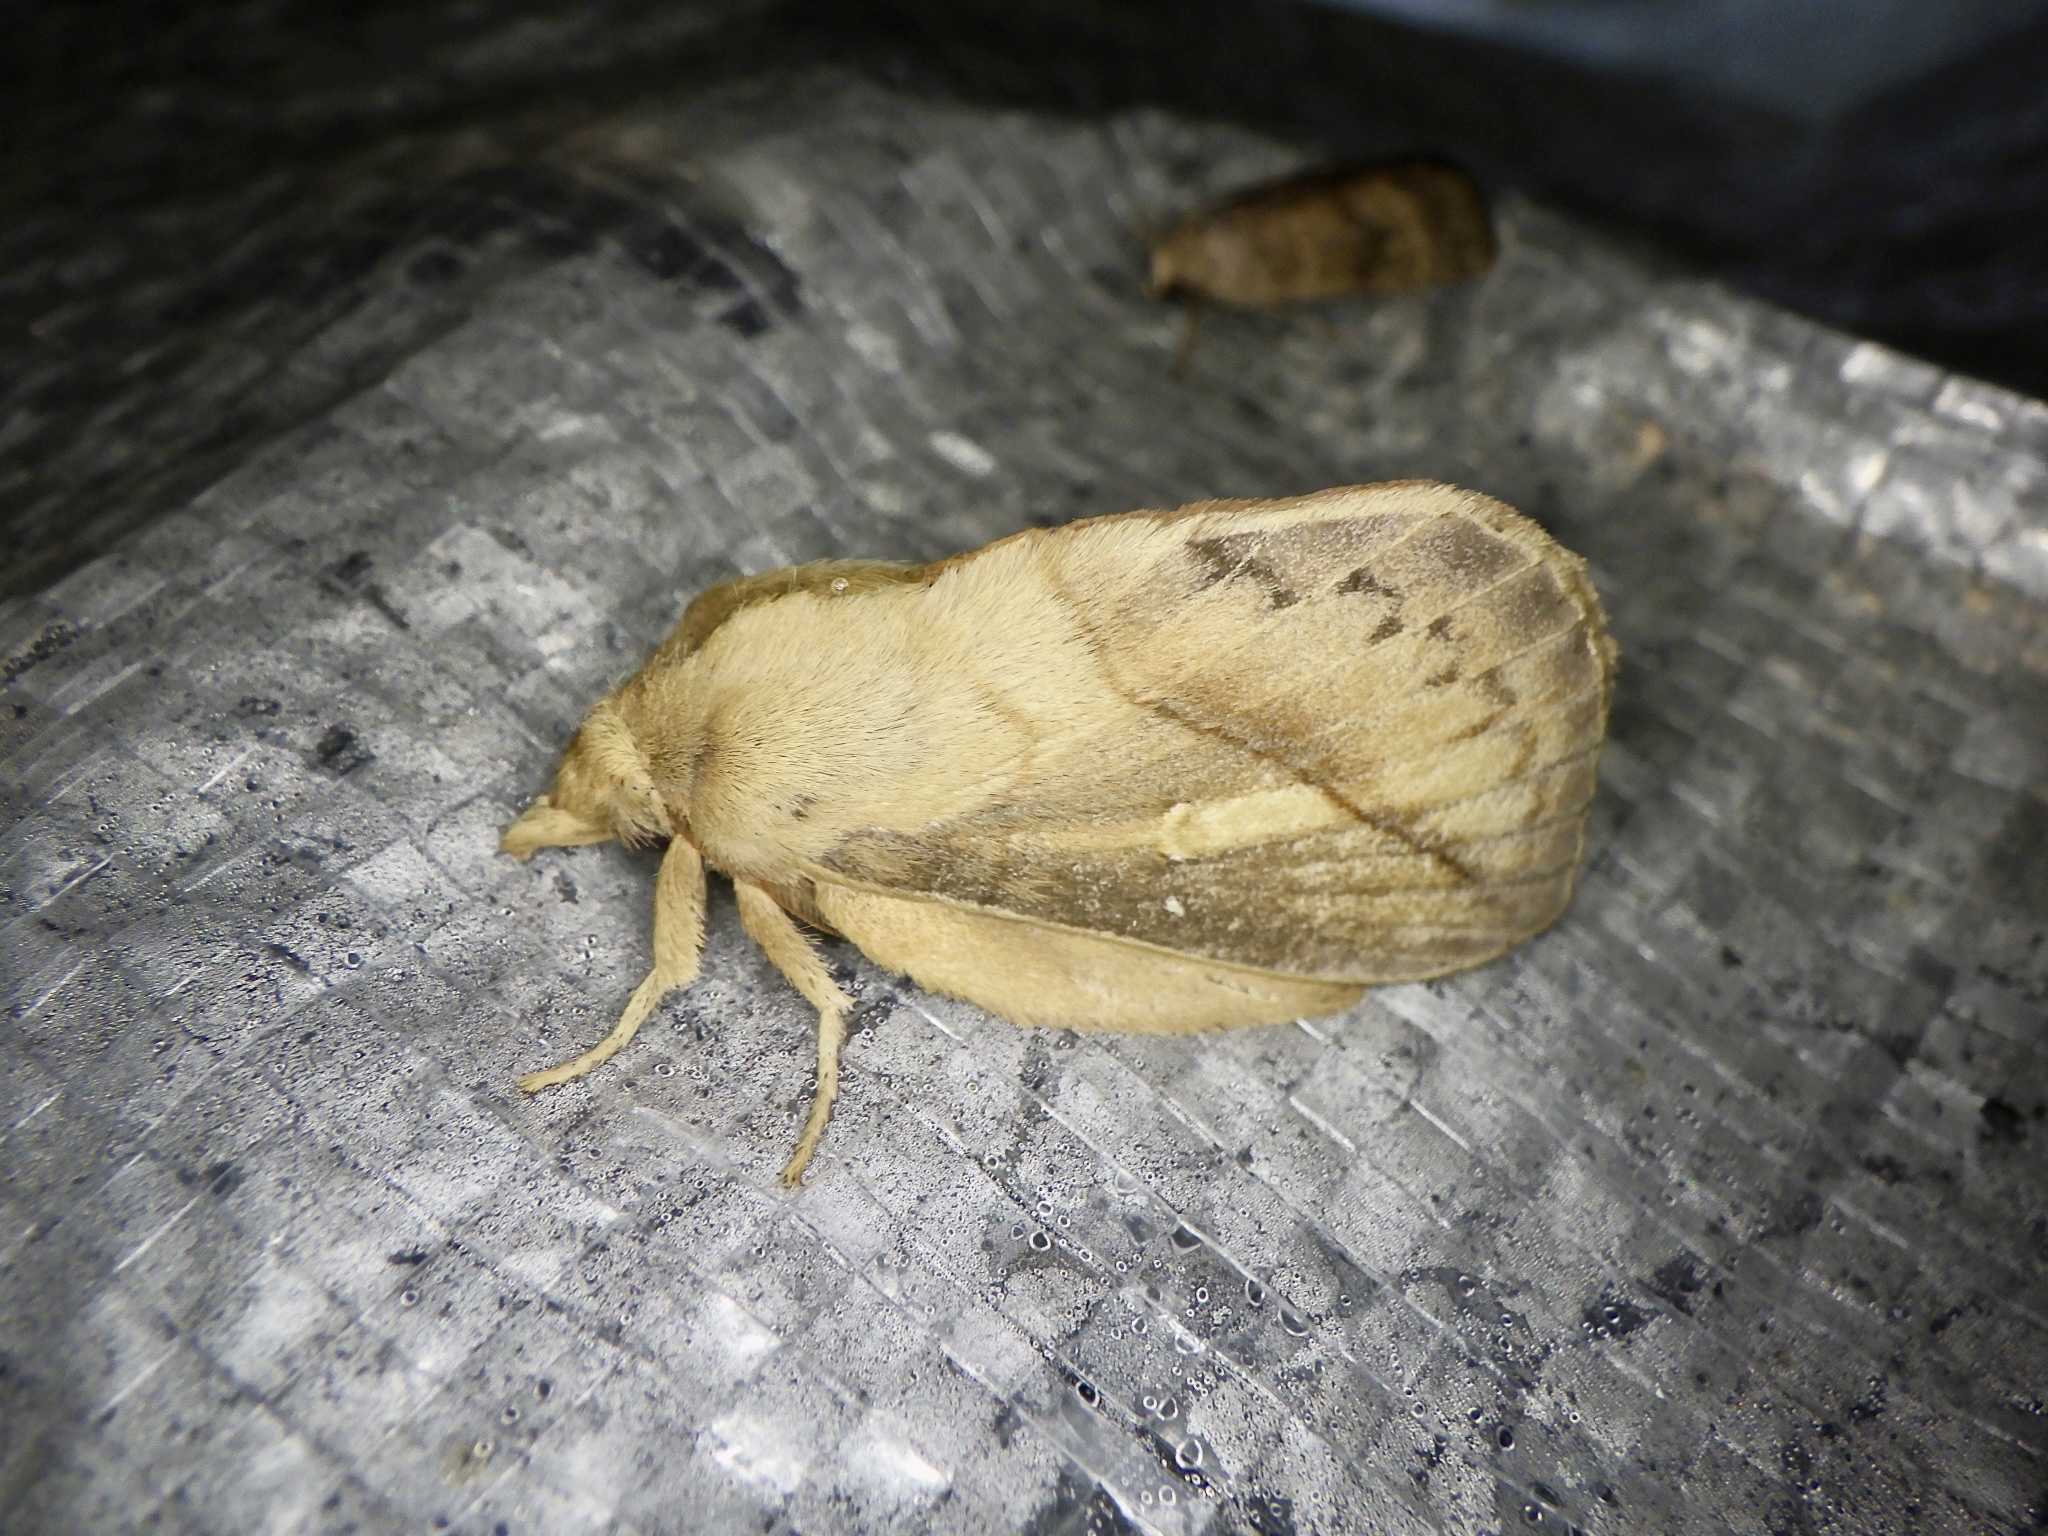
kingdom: Animalia
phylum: Arthropoda
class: Insecta
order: Lepidoptera
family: Lasiocampidae
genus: Euthrix
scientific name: Euthrix potatoria
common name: Drinker
